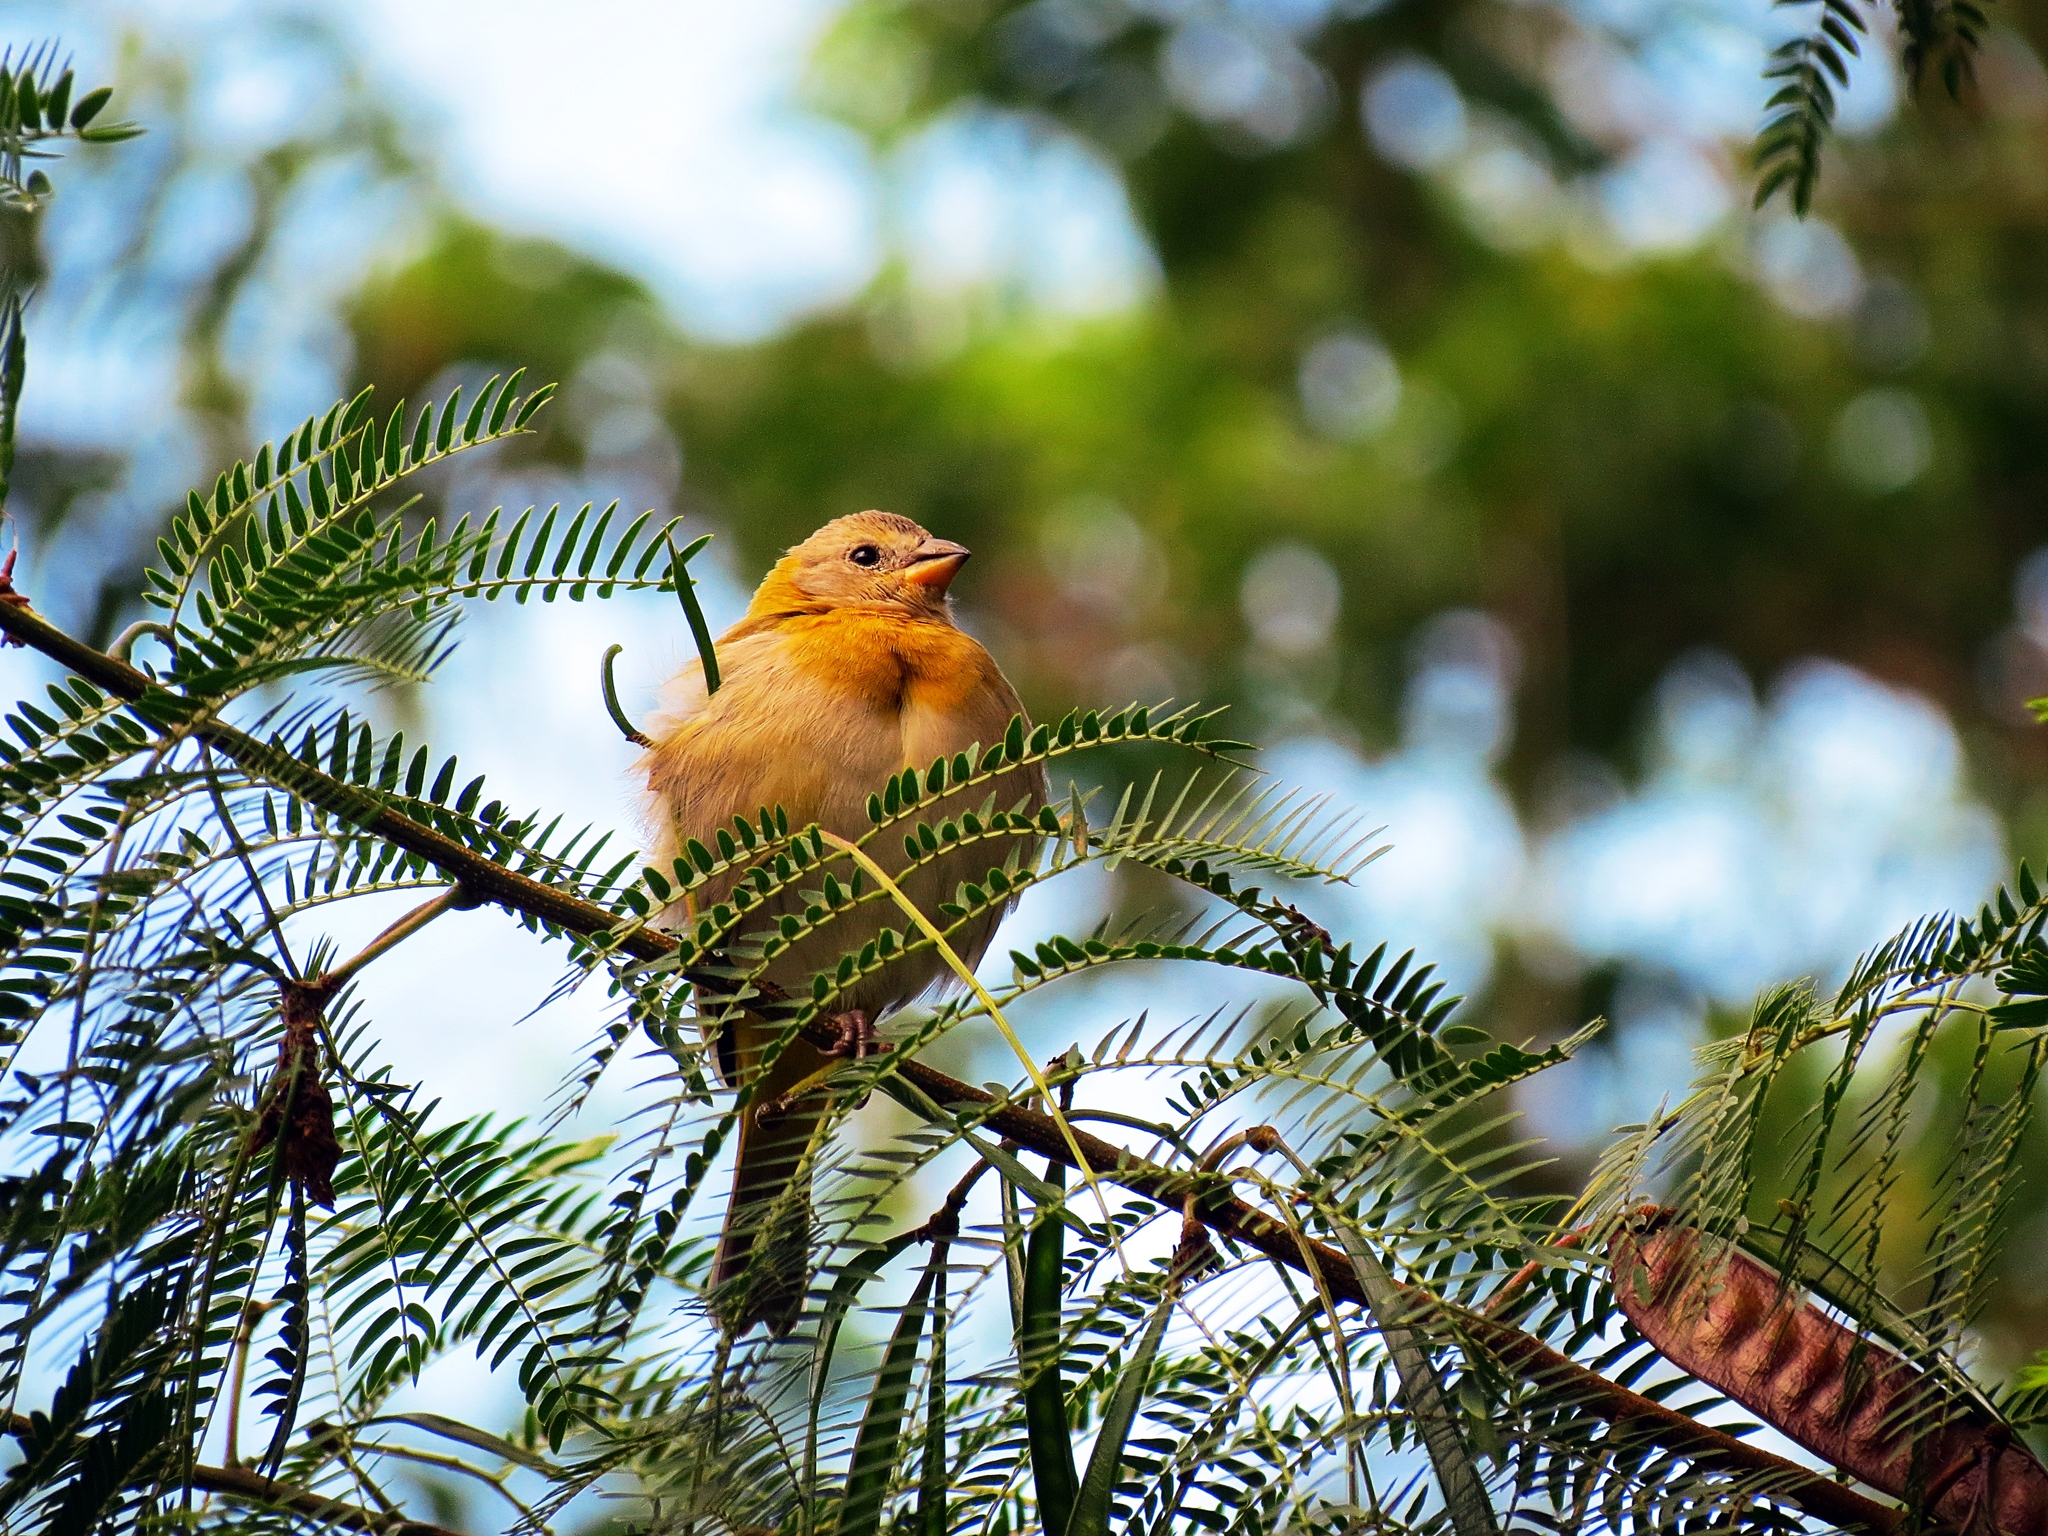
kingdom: Animalia
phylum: Chordata
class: Aves
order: Passeriformes
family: Thraupidae
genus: Sicalis
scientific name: Sicalis flaveola
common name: Saffron finch
